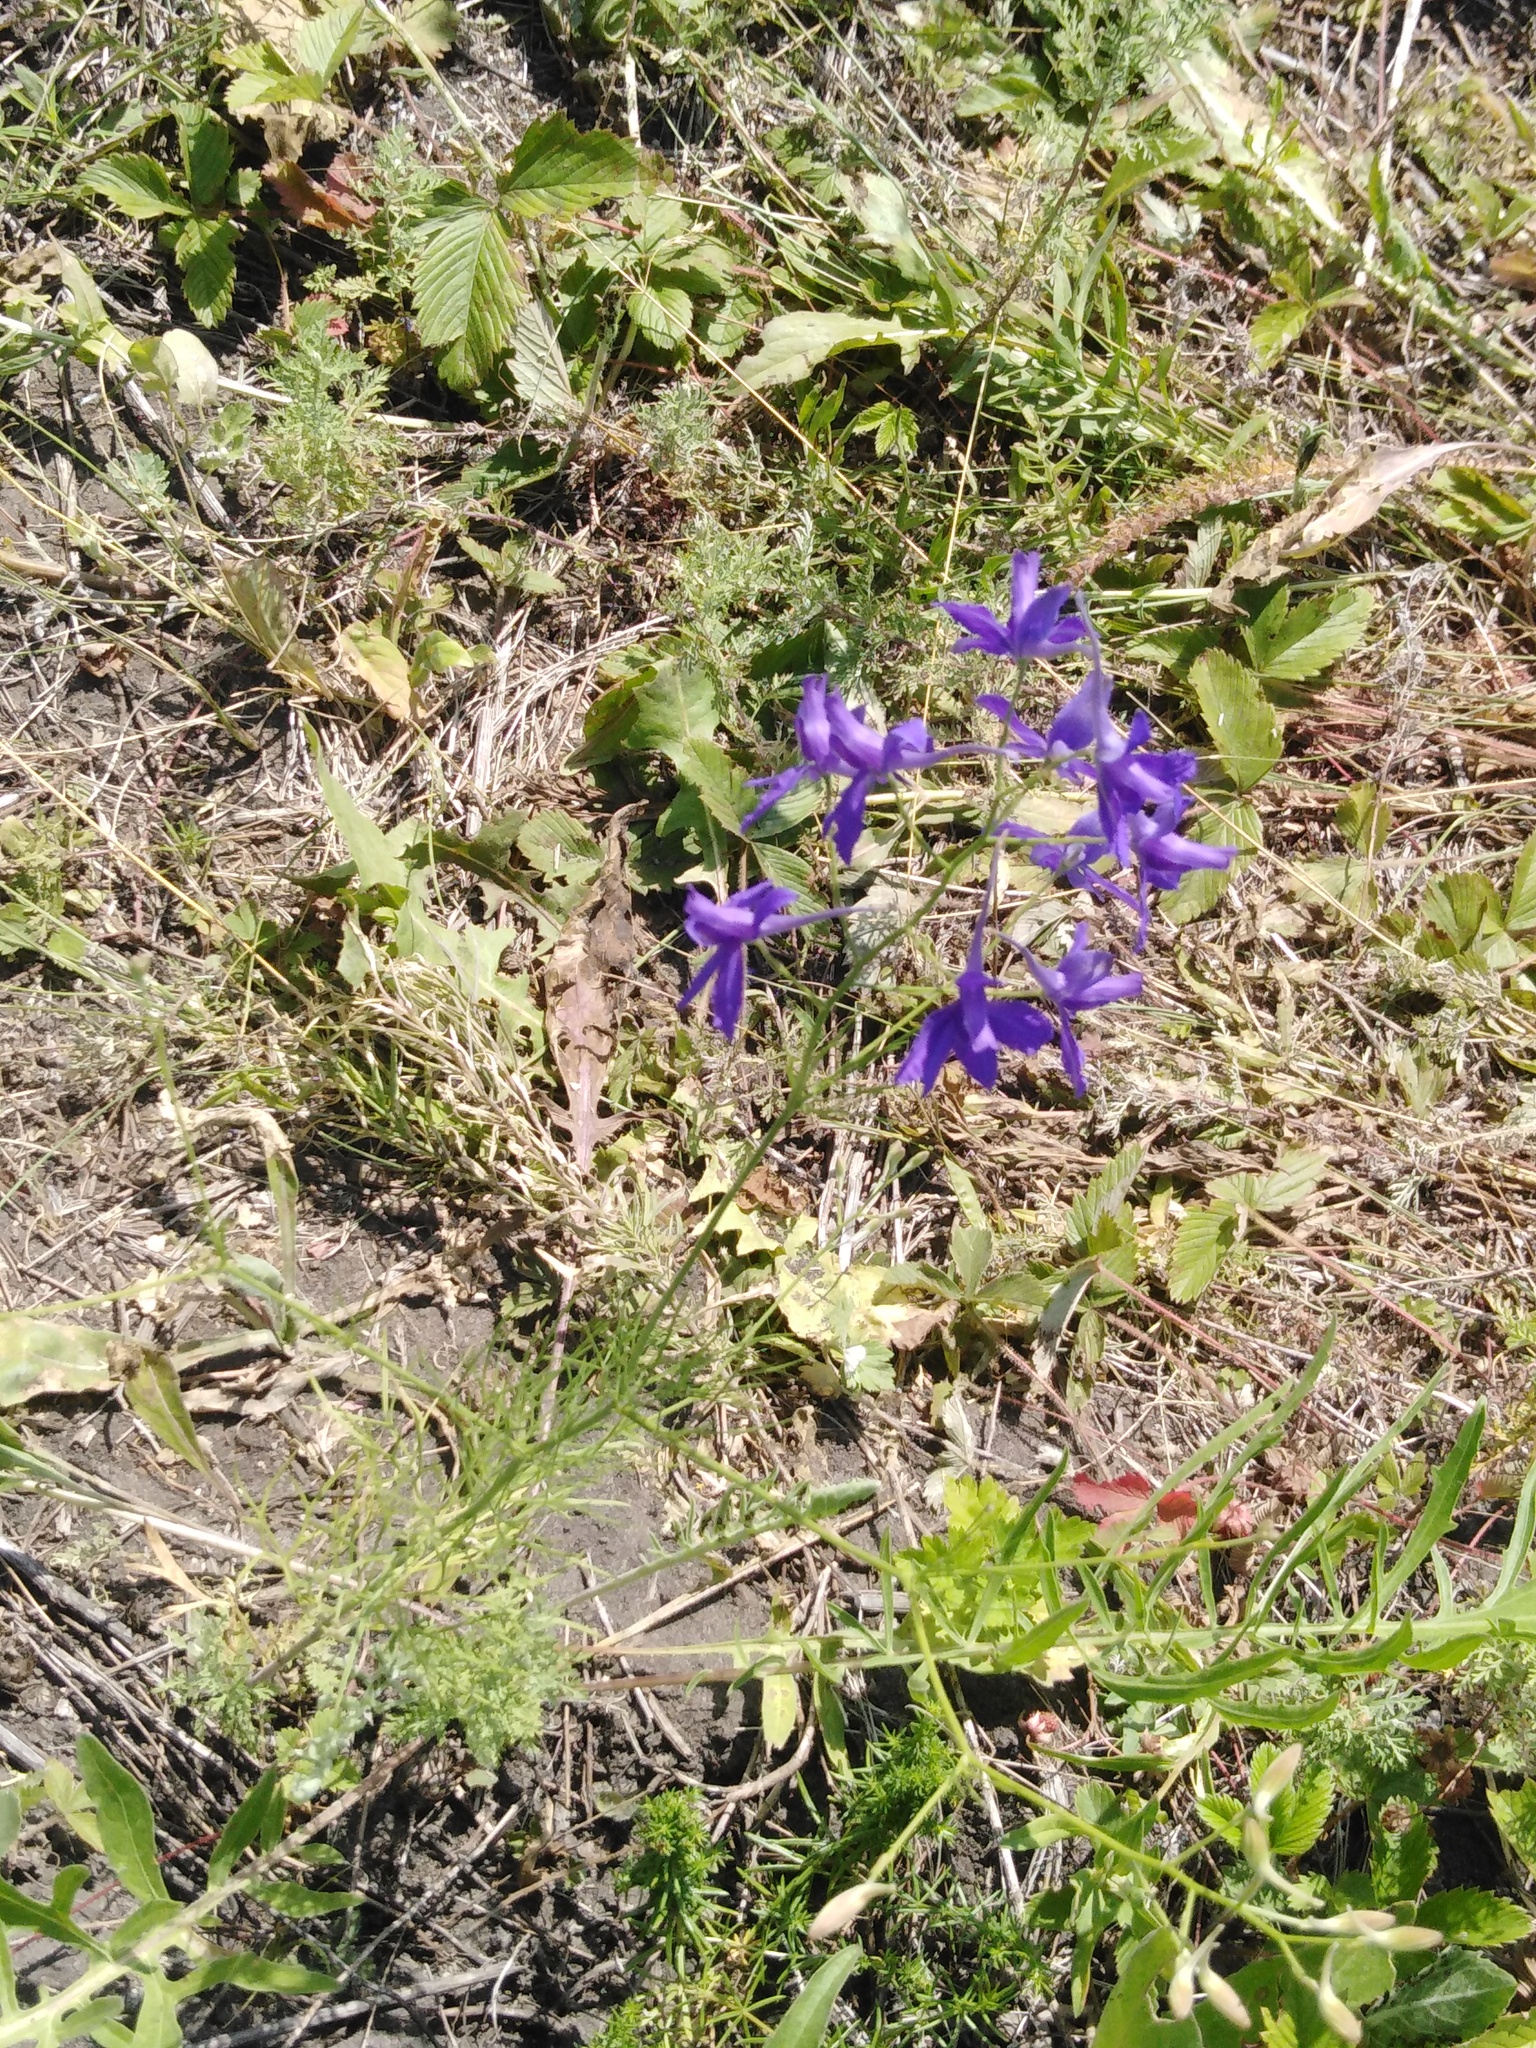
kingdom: Plantae
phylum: Tracheophyta
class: Magnoliopsida
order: Ranunculales
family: Ranunculaceae
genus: Delphinium
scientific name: Delphinium consolida
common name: Branching larkspur
